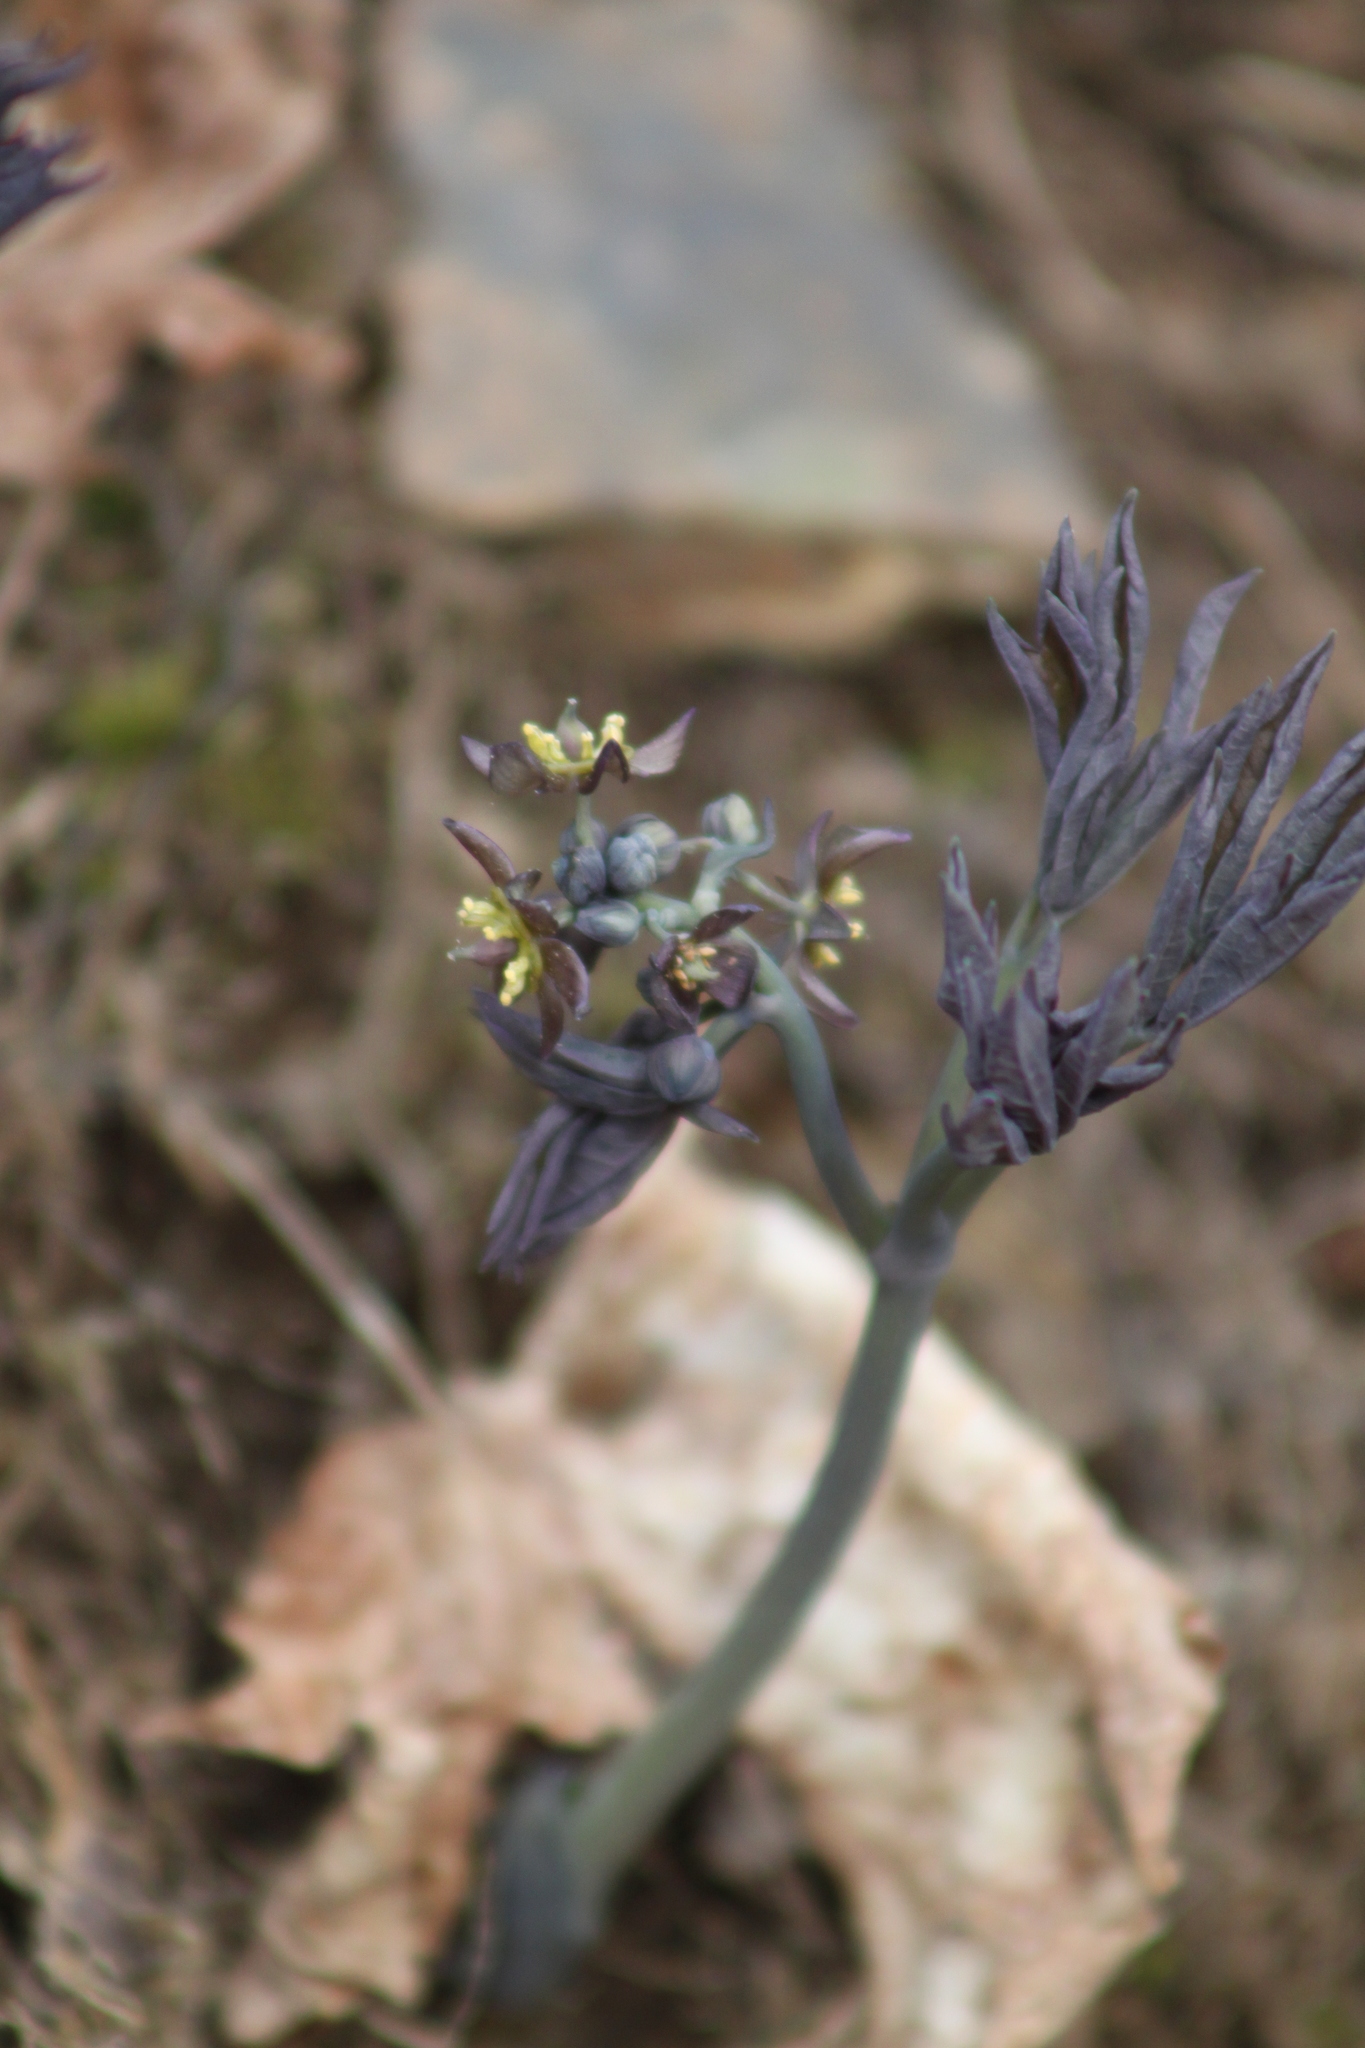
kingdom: Plantae
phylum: Tracheophyta
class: Magnoliopsida
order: Ranunculales
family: Berberidaceae
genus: Caulophyllum
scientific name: Caulophyllum giganteum
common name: Blue cohosh
